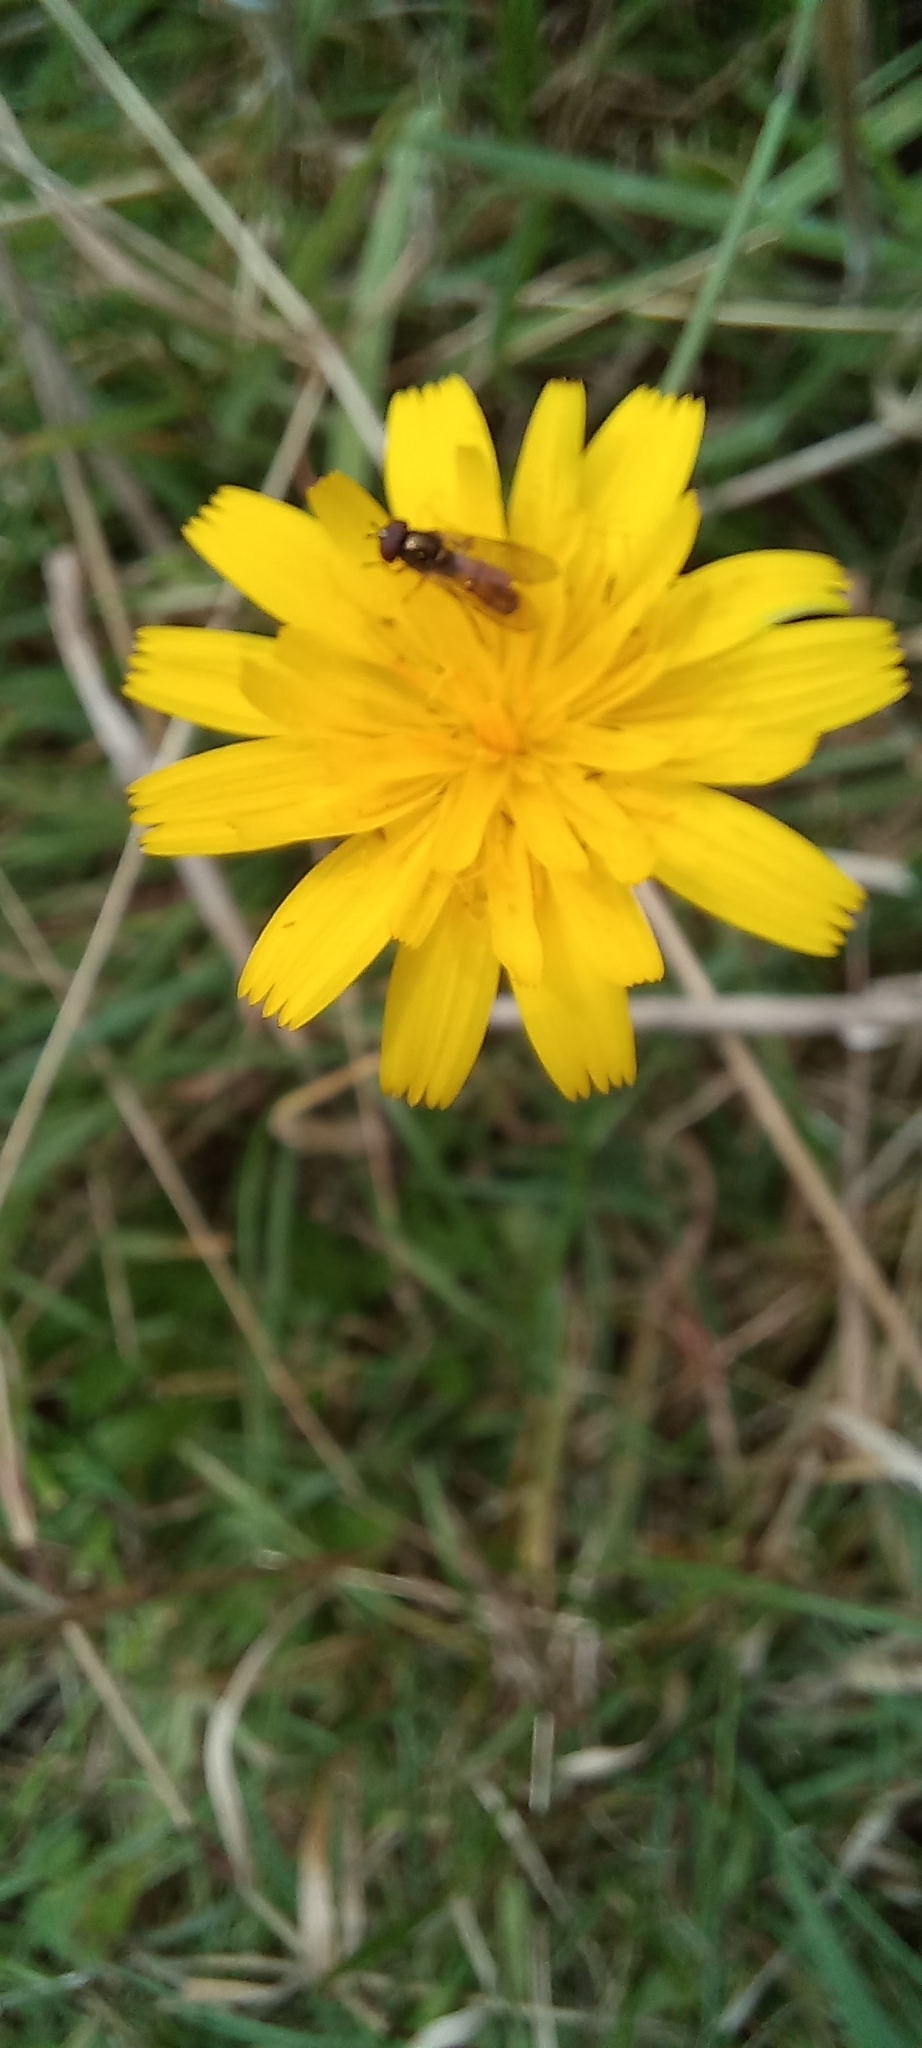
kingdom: Animalia
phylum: Arthropoda
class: Insecta
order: Diptera
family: Syrphidae
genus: Melanostoma
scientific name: Melanostoma fasciatum
